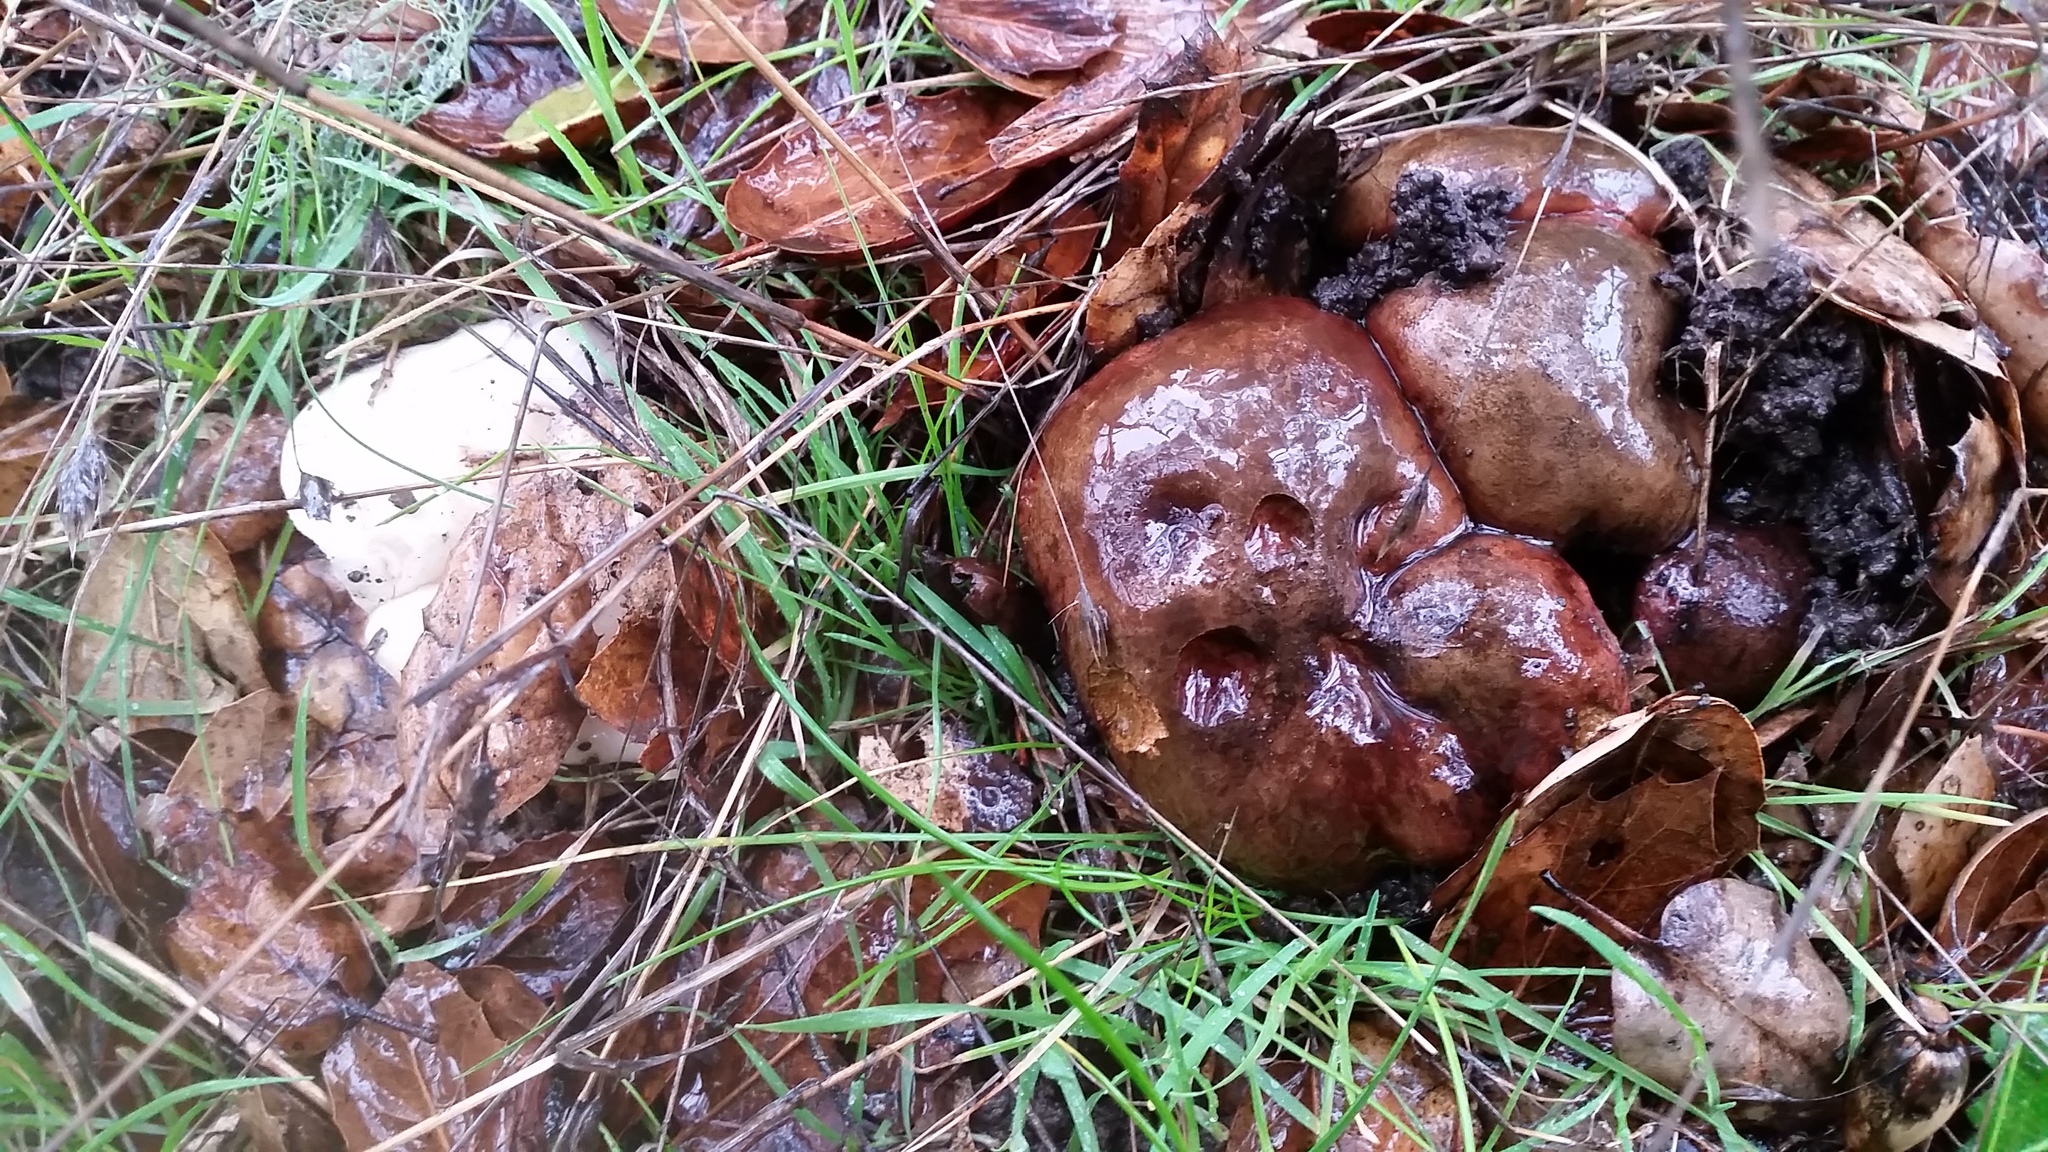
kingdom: Fungi
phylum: Basidiomycota
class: Agaricomycetes
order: Boletales
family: Boletaceae
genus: Suillellus
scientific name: Suillellus amygdalinus
